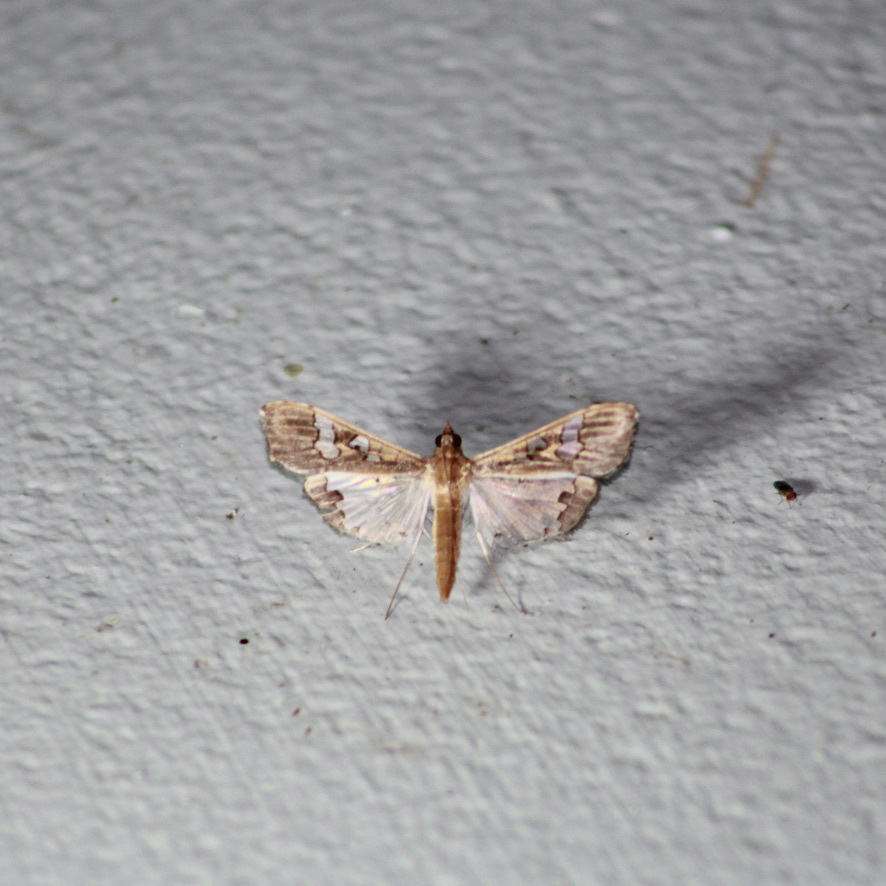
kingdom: Animalia
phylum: Arthropoda
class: Insecta
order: Lepidoptera
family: Crambidae
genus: Maruca
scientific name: Maruca vitrata
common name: Maruca pod borer
